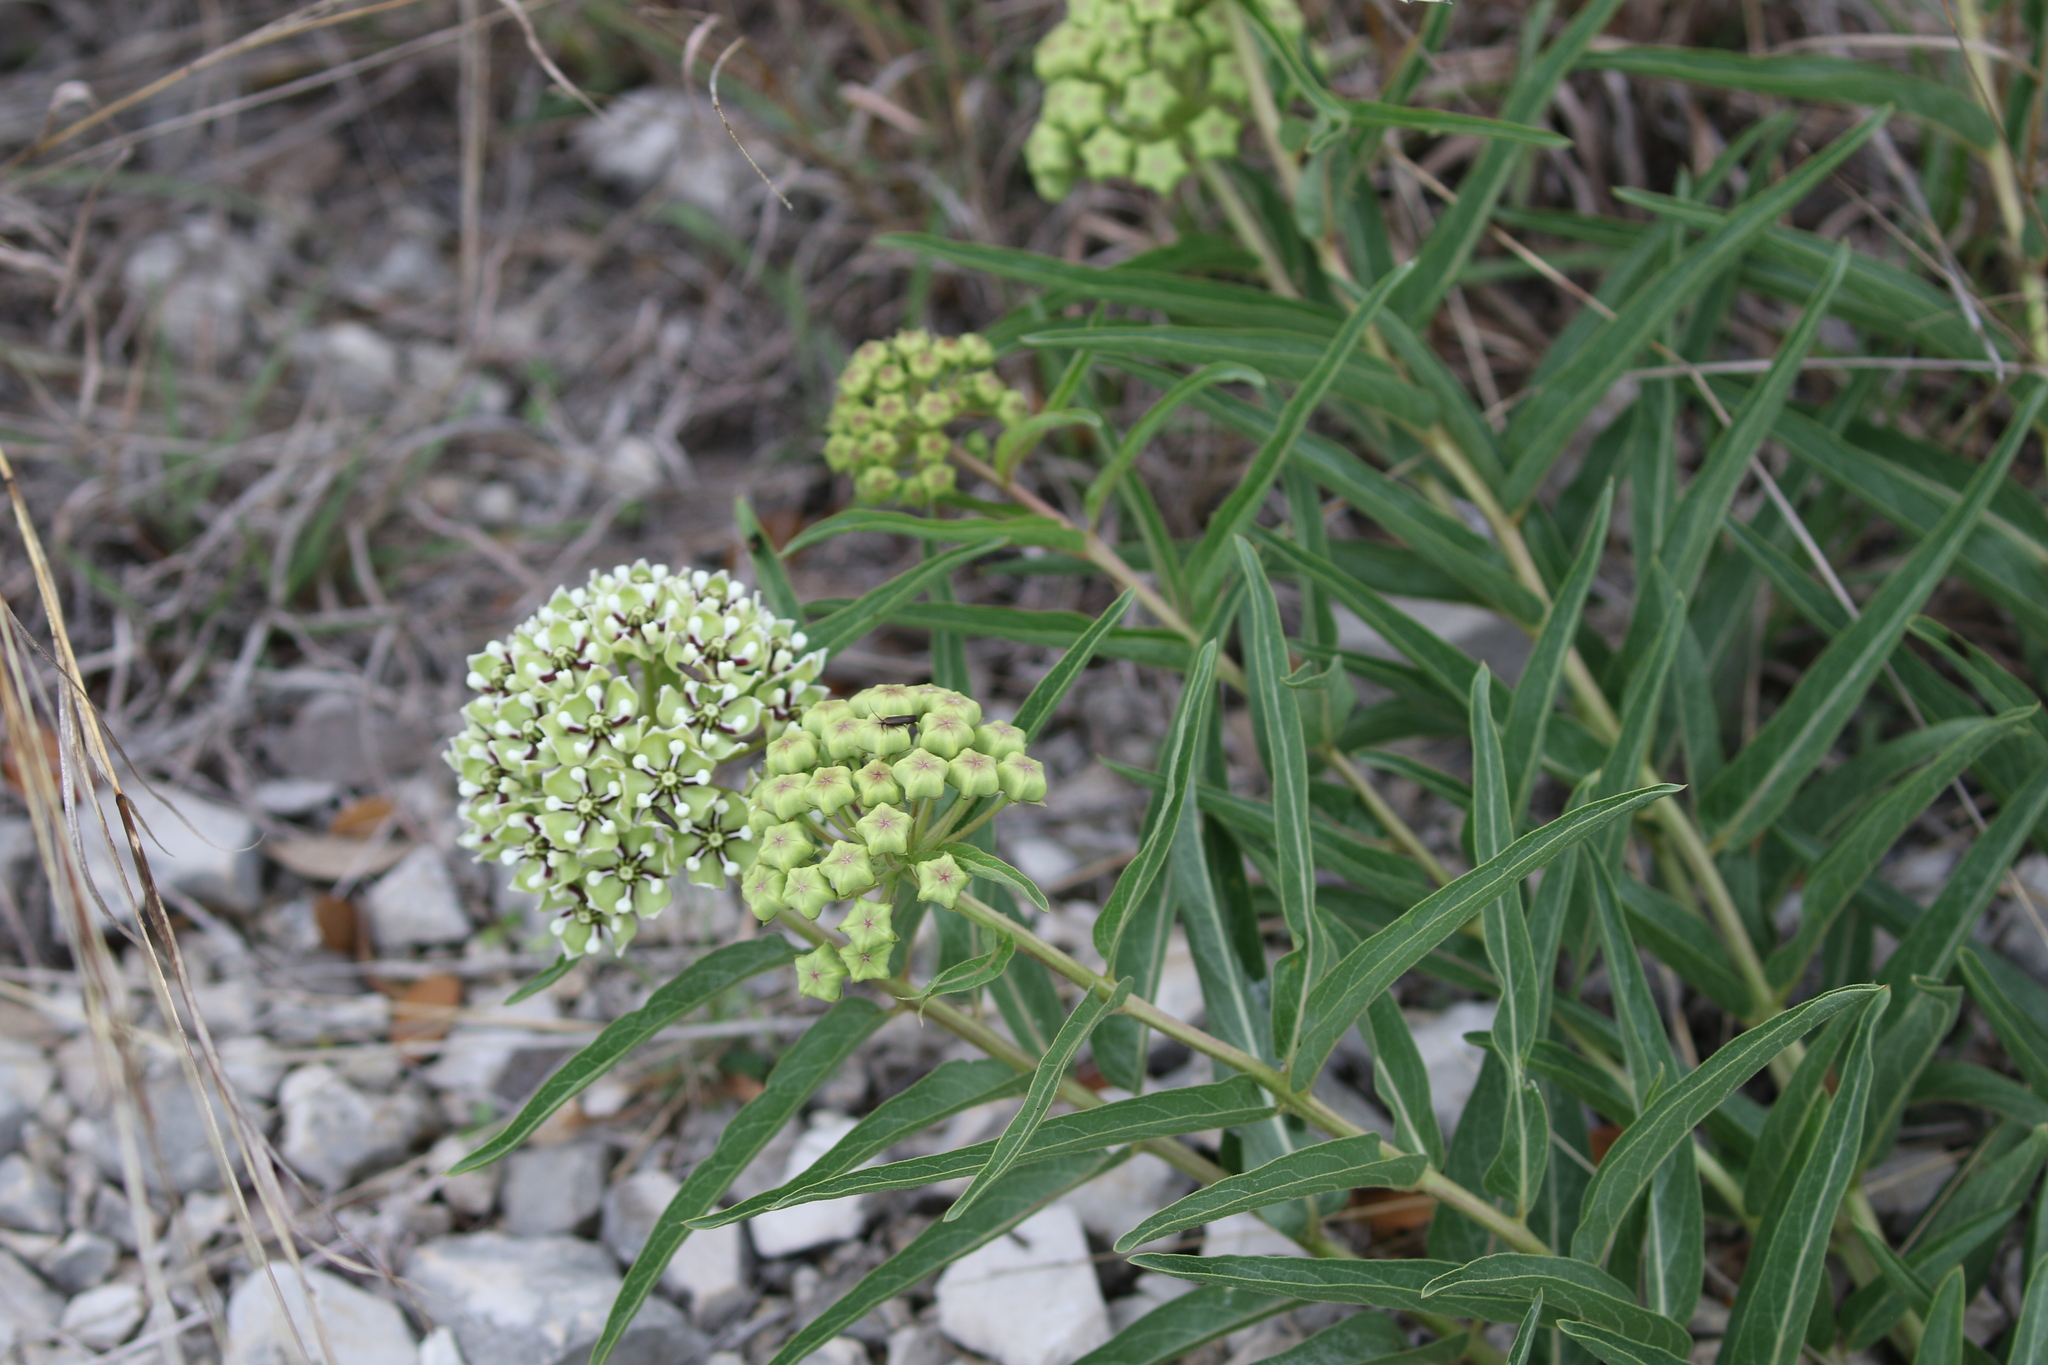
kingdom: Plantae
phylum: Tracheophyta
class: Magnoliopsida
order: Gentianales
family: Apocynaceae
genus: Asclepias
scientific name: Asclepias asperula
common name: Antelope horns
